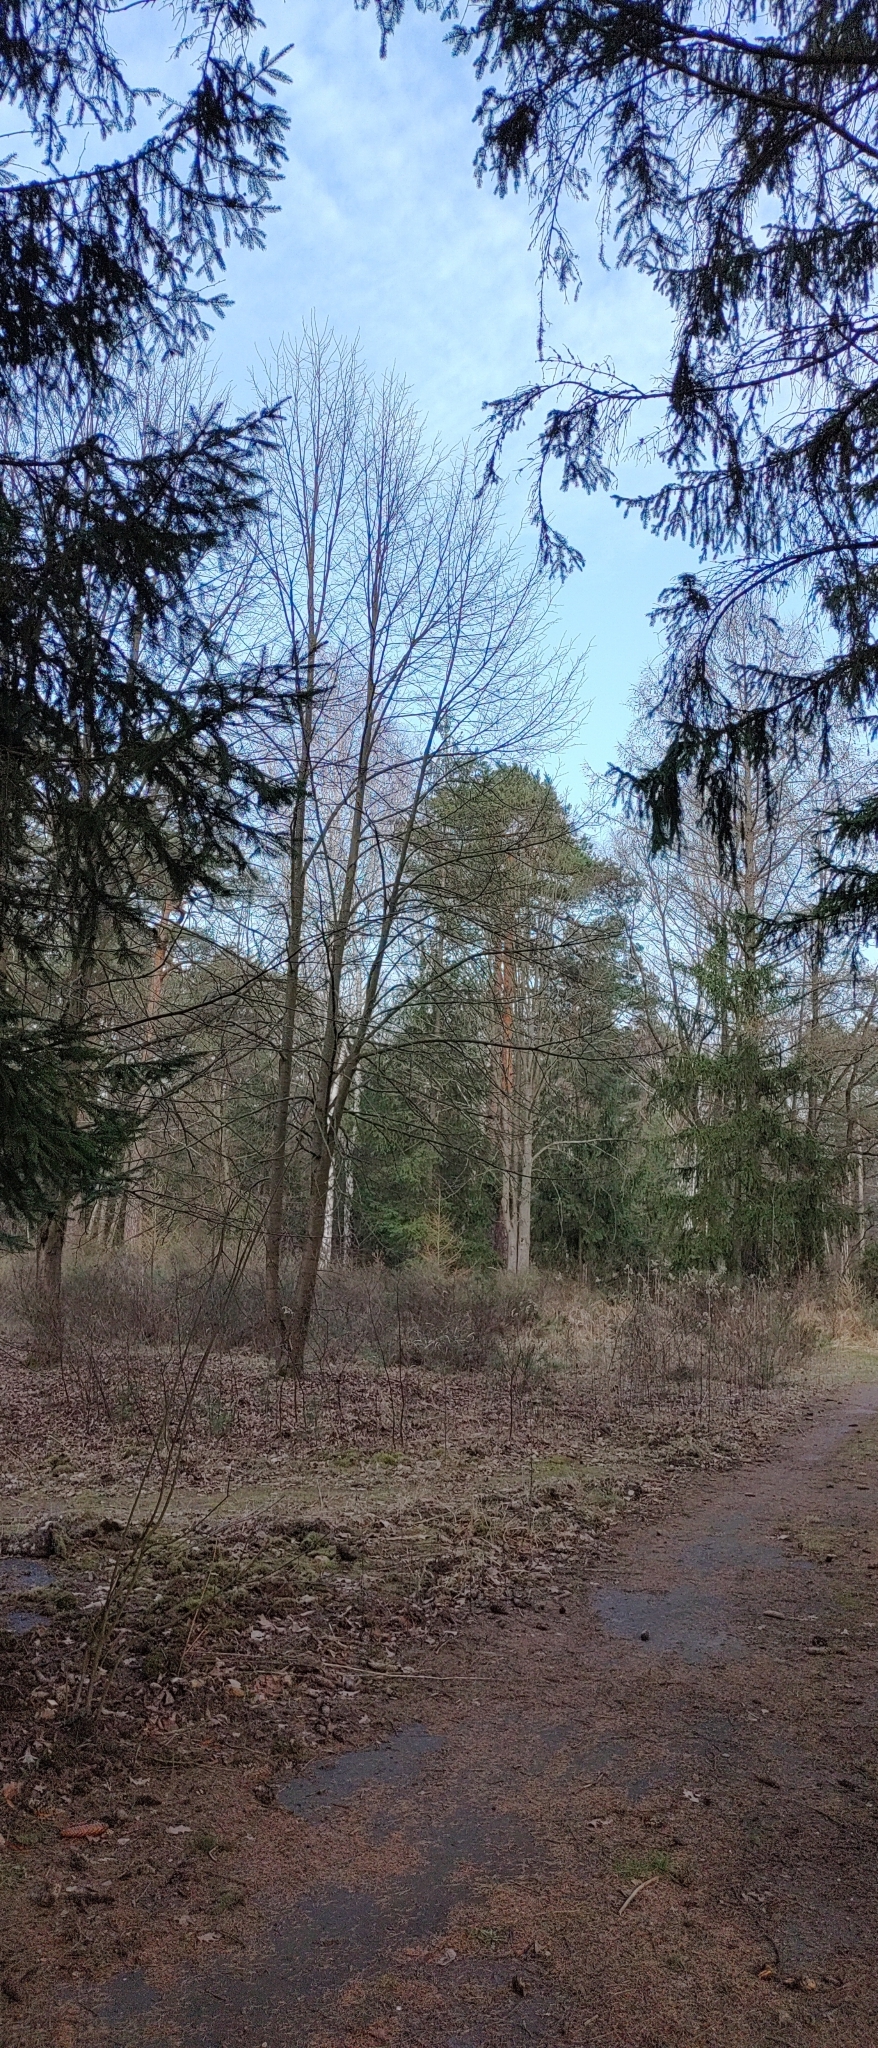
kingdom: Animalia
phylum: Chordata
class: Aves
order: Passeriformes
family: Paridae
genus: Parus
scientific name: Parus major
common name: Great tit
